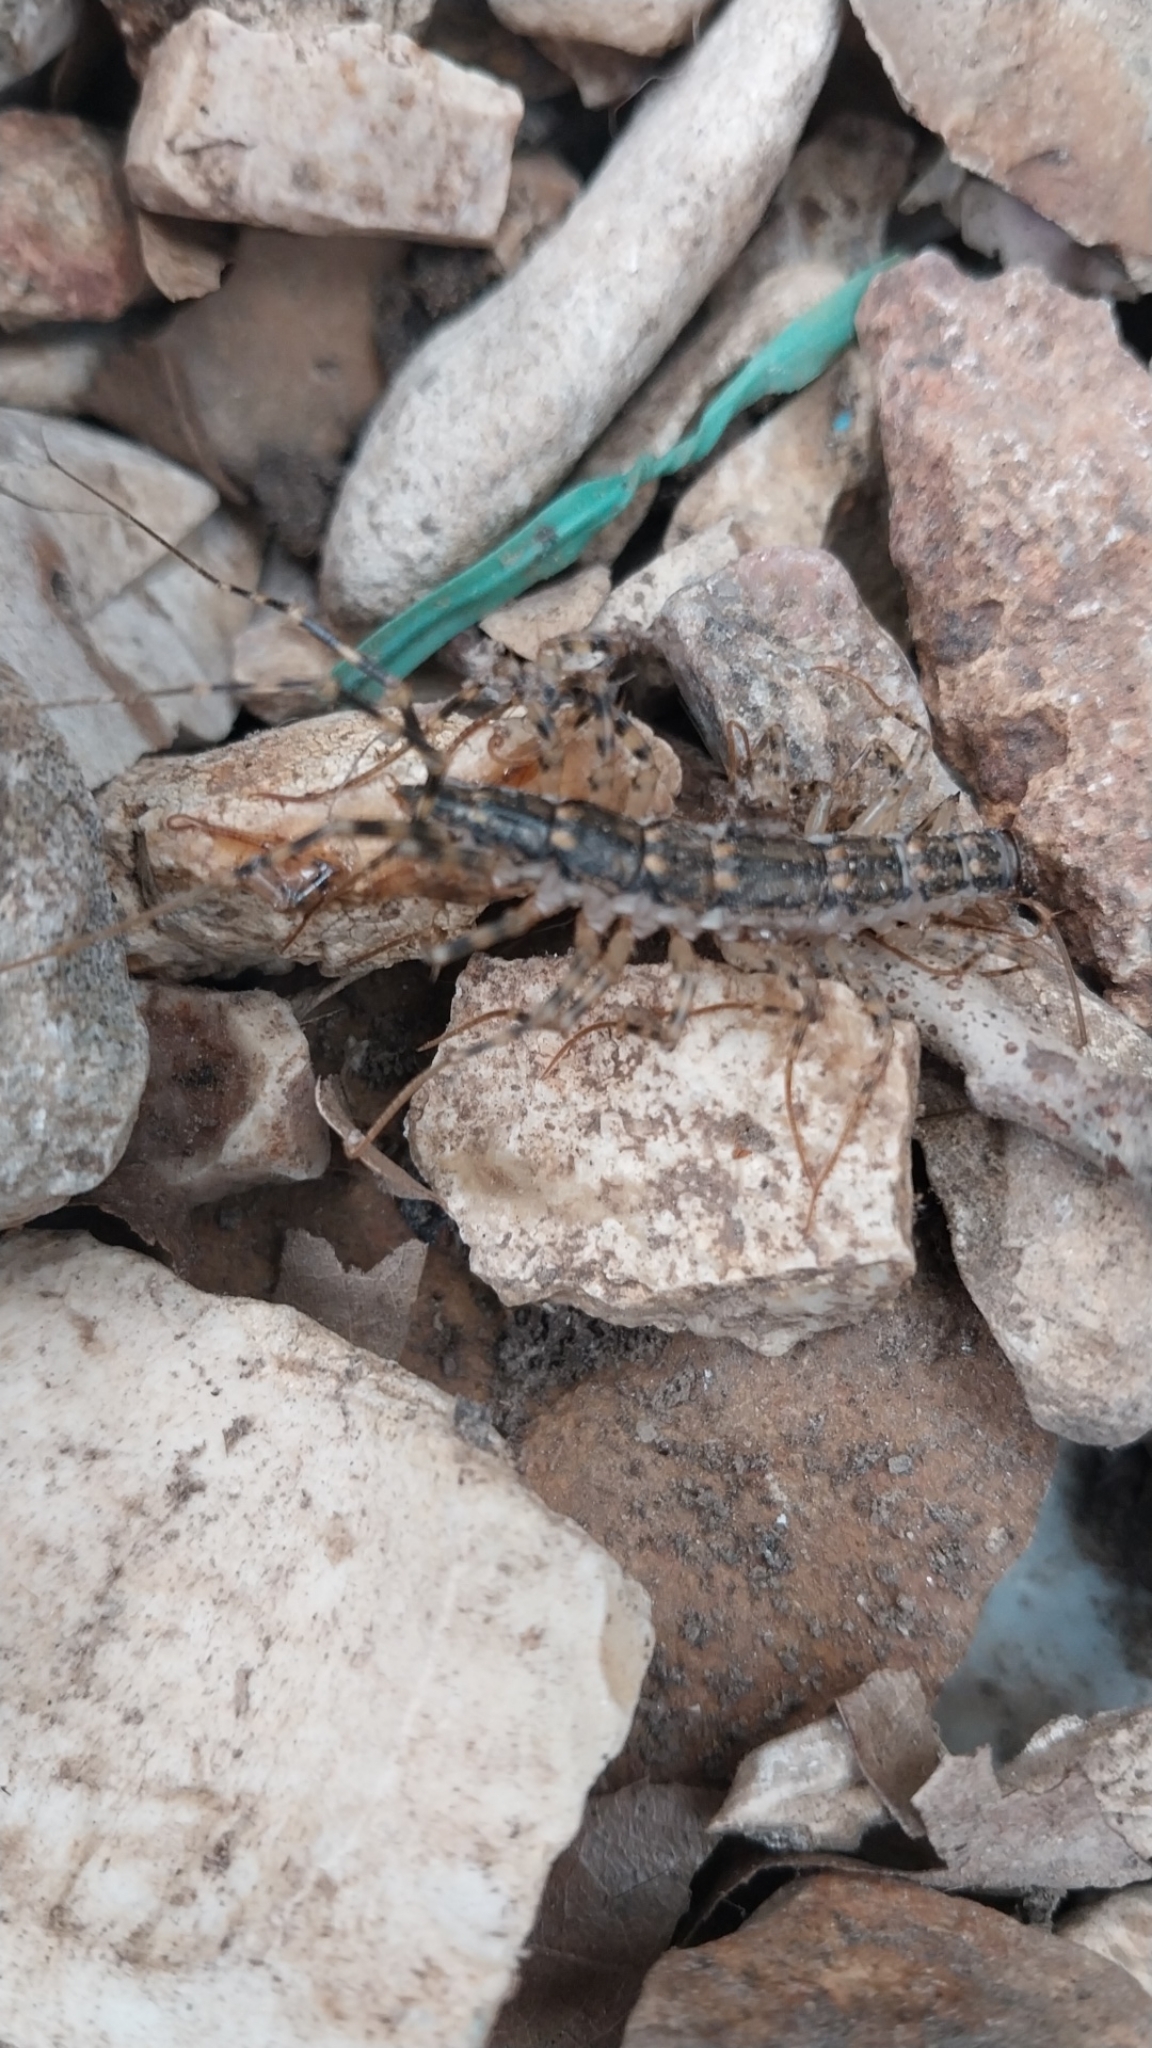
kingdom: Animalia
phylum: Arthropoda
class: Chilopoda
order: Scutigeromorpha
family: Scutigeridae
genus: Thereuonema
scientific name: Thereuonema tuberculata
